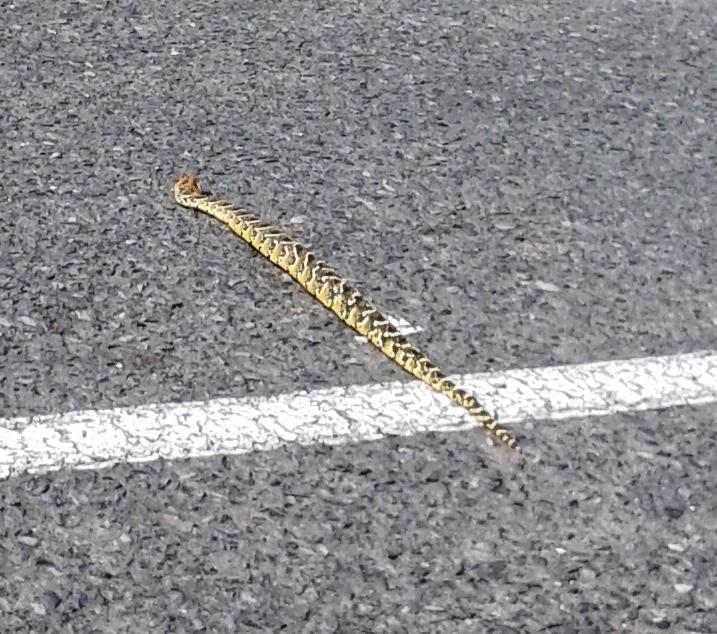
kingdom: Animalia
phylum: Chordata
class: Squamata
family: Viperidae
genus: Bitis
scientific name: Bitis arietans
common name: Puff adder
